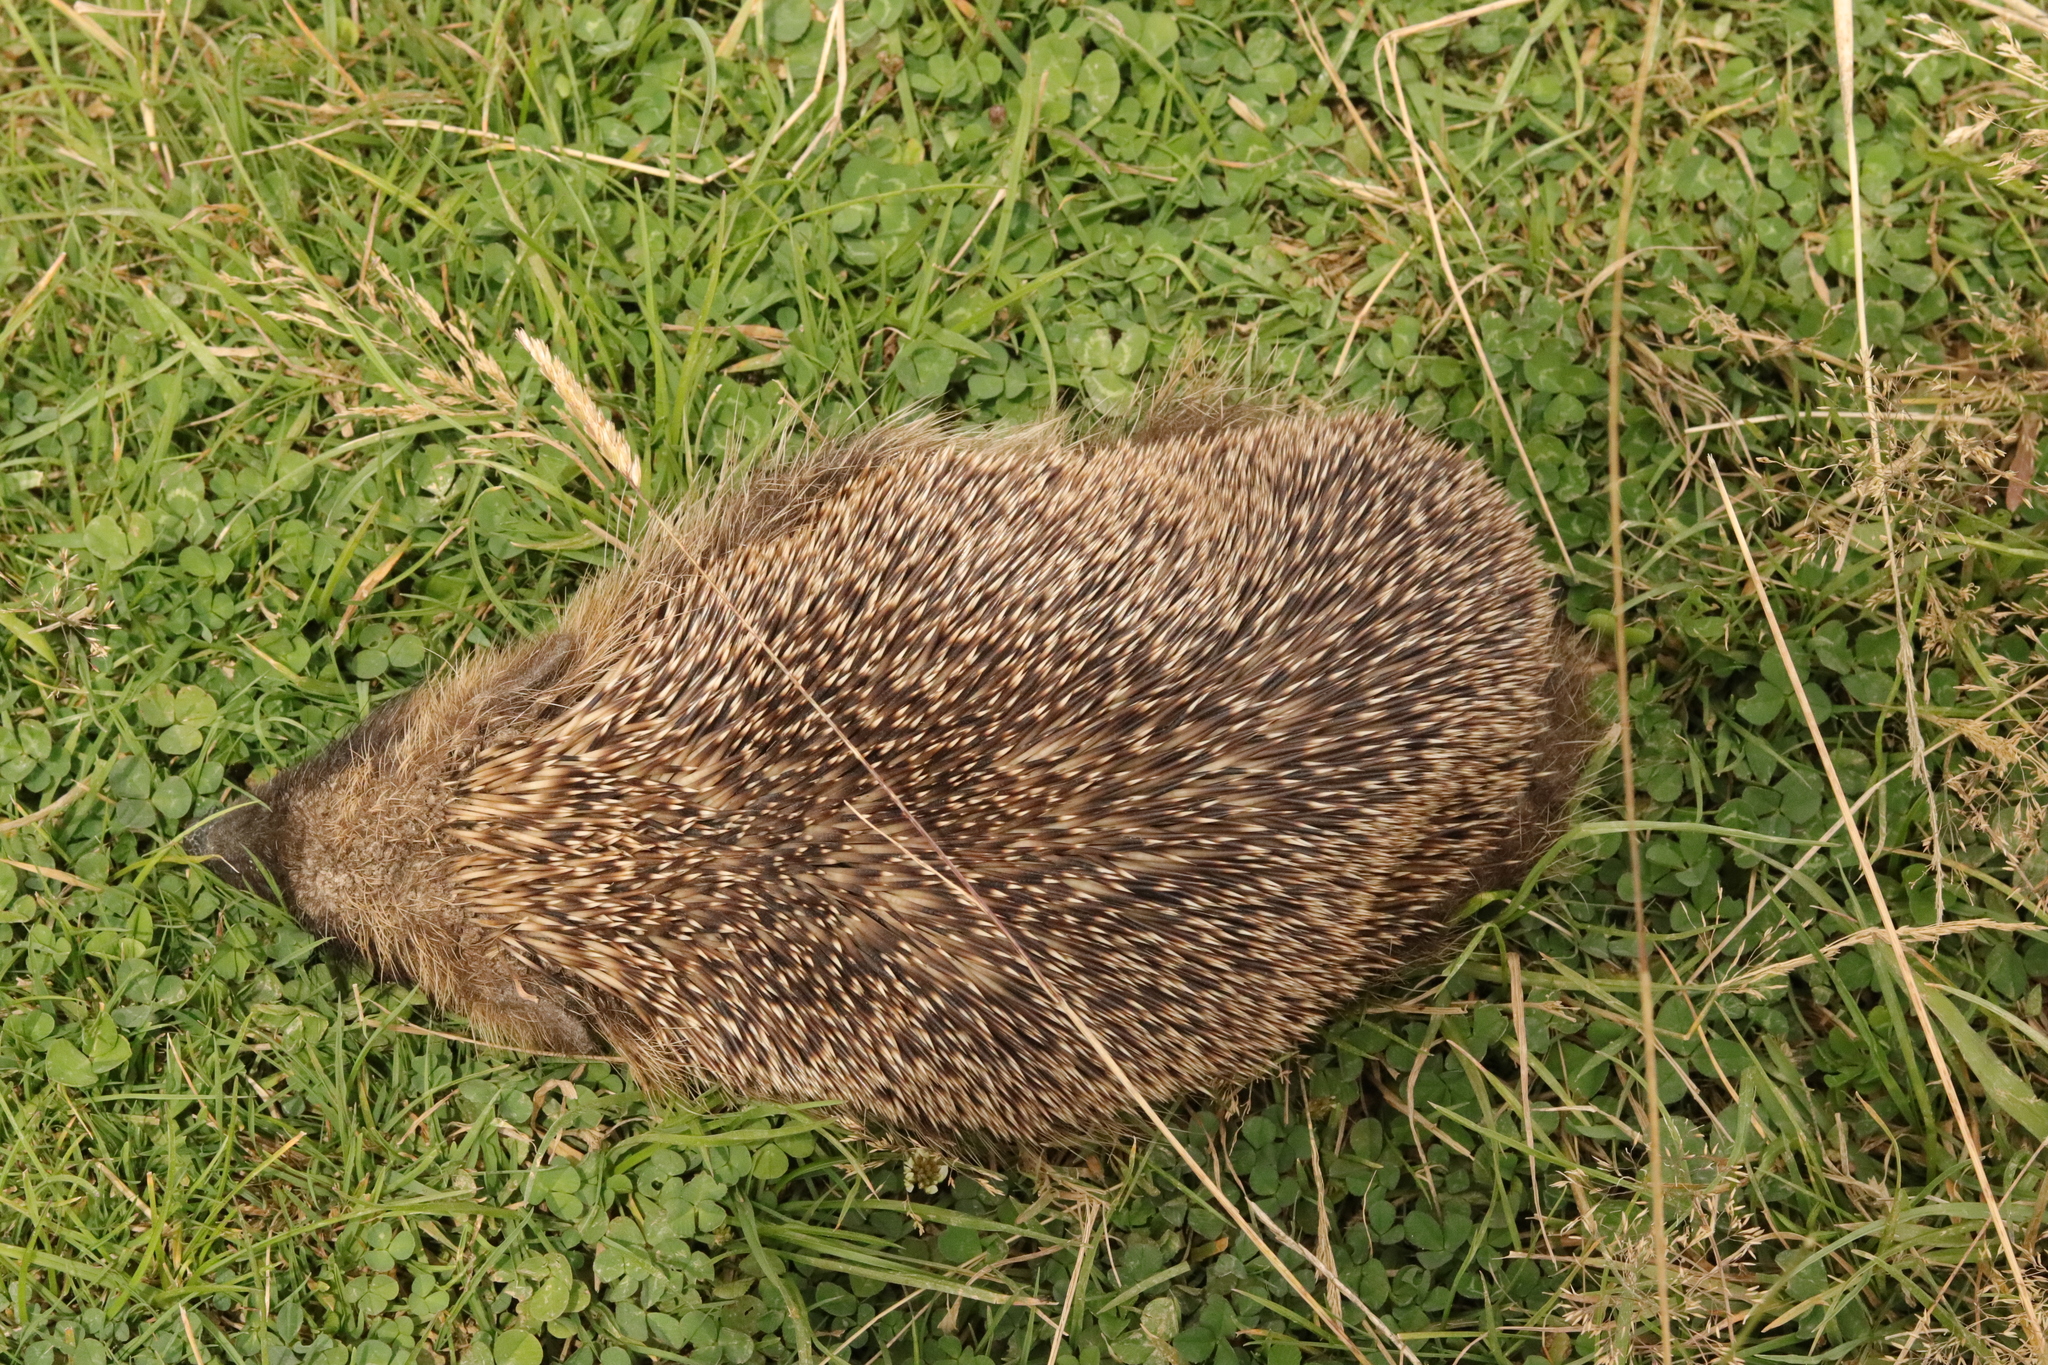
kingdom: Animalia
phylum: Chordata
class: Mammalia
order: Erinaceomorpha
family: Erinaceidae
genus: Erinaceus
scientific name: Erinaceus europaeus
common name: West european hedgehog
